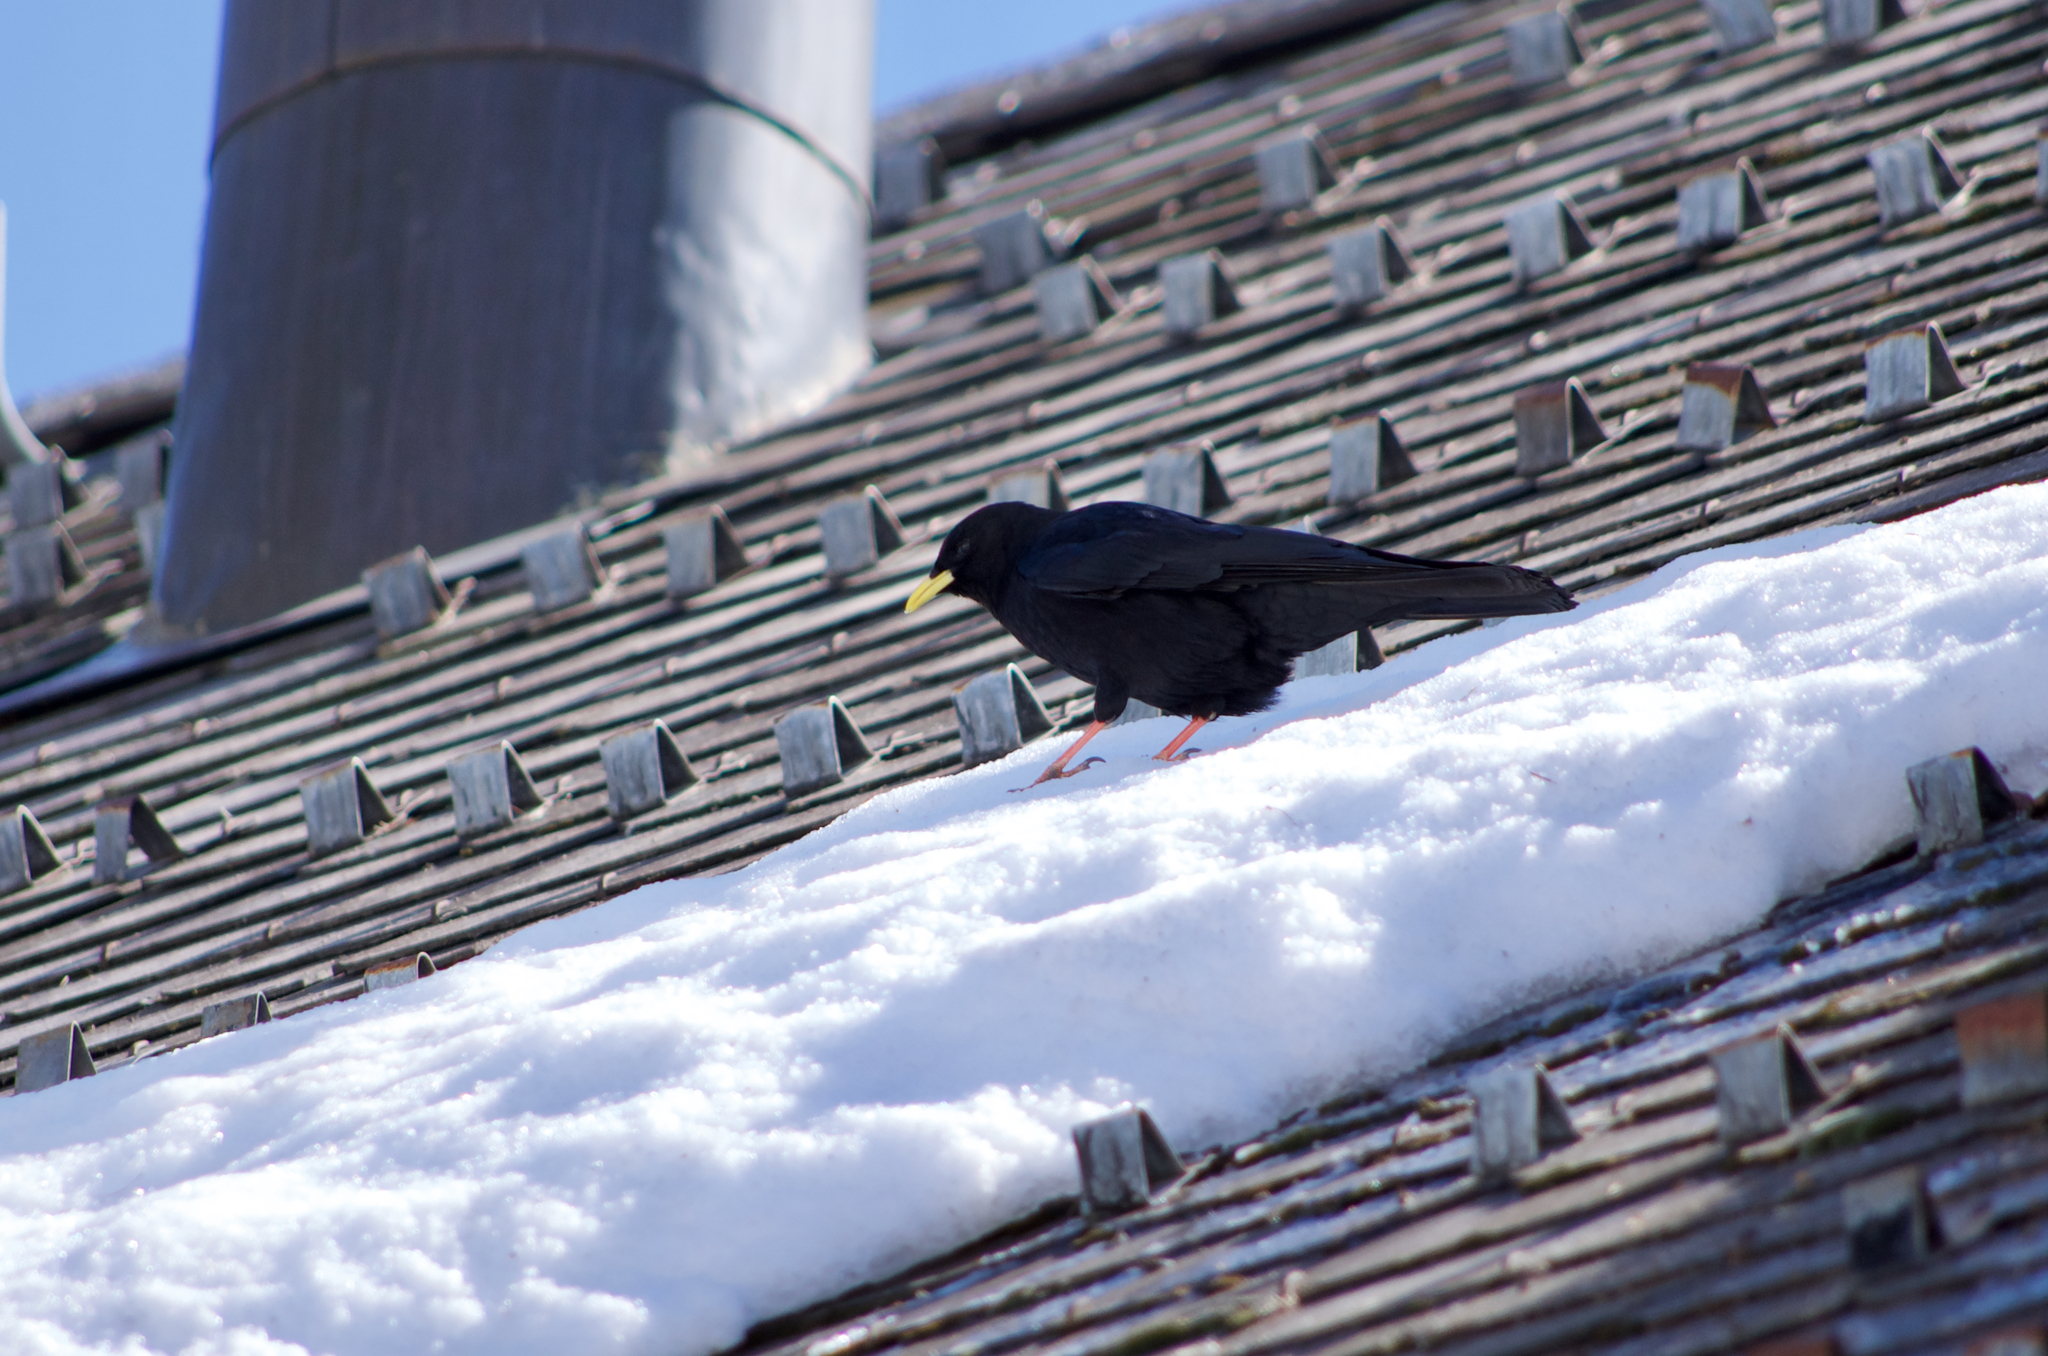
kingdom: Animalia
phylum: Chordata
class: Aves
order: Passeriformes
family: Corvidae
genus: Pyrrhocorax
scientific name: Pyrrhocorax graculus
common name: Alpine chough
